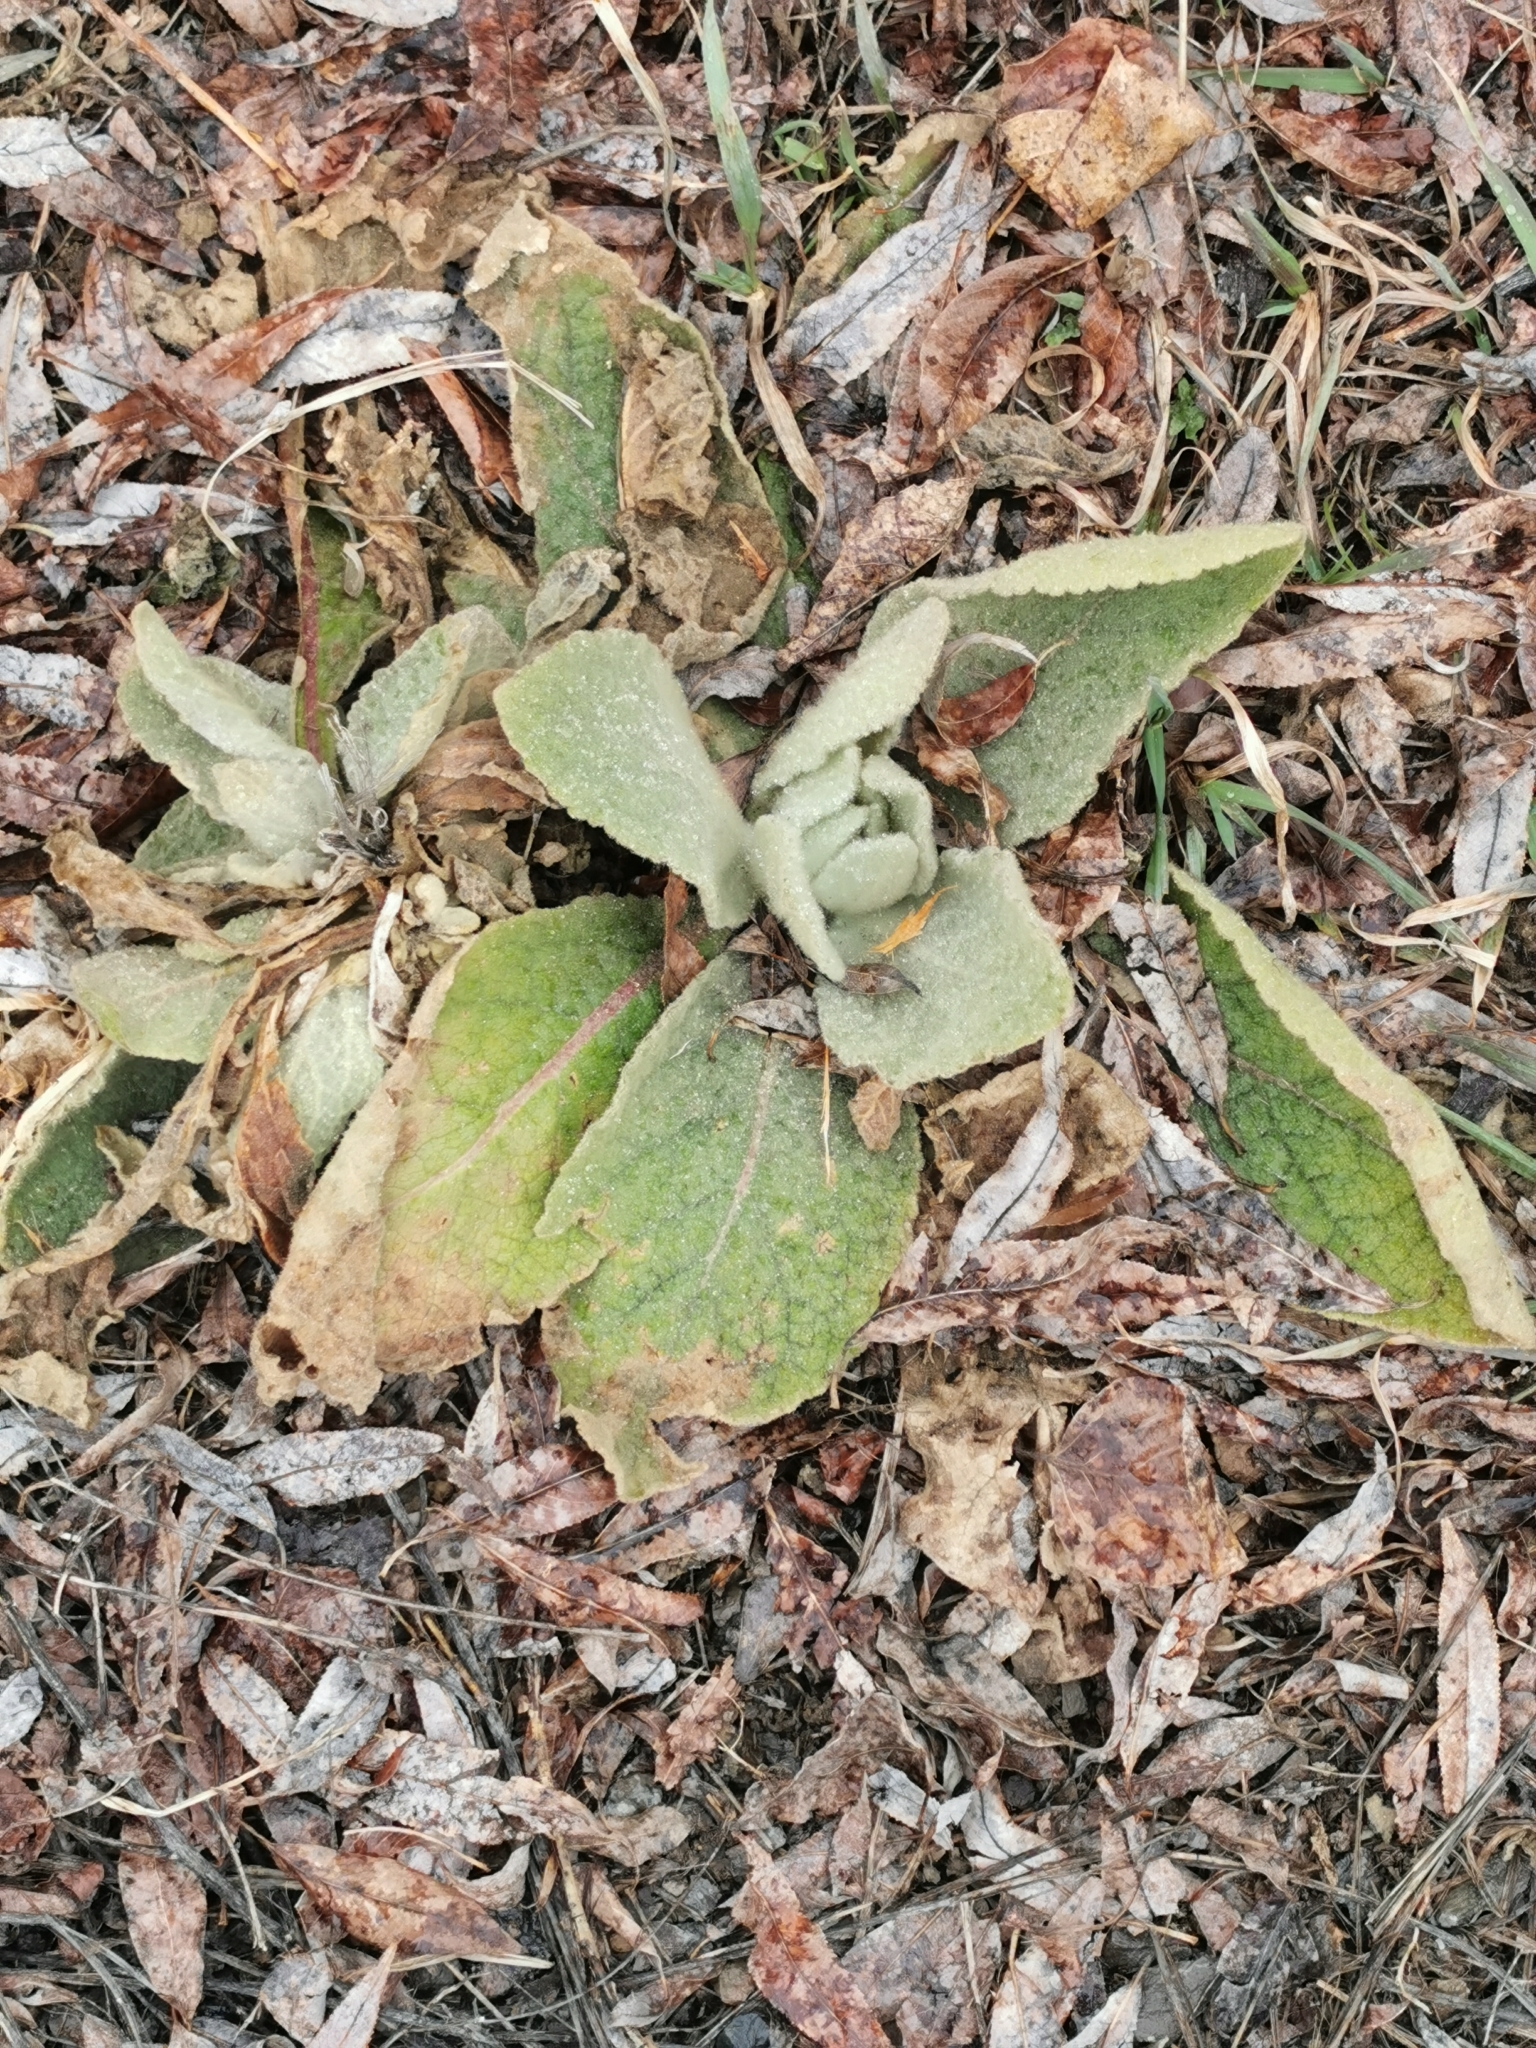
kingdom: Plantae
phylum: Tracheophyta
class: Magnoliopsida
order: Lamiales
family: Scrophulariaceae
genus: Verbascum
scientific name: Verbascum thapsus
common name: Common mullein
